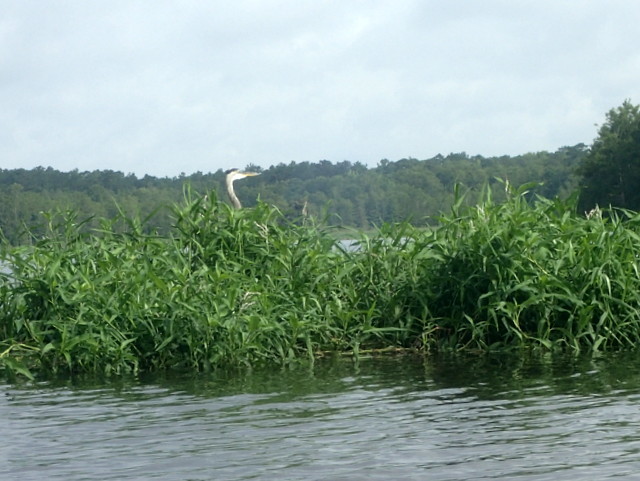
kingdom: Animalia
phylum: Chordata
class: Aves
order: Pelecaniformes
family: Ardeidae
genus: Ardea
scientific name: Ardea herodias
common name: Great blue heron
